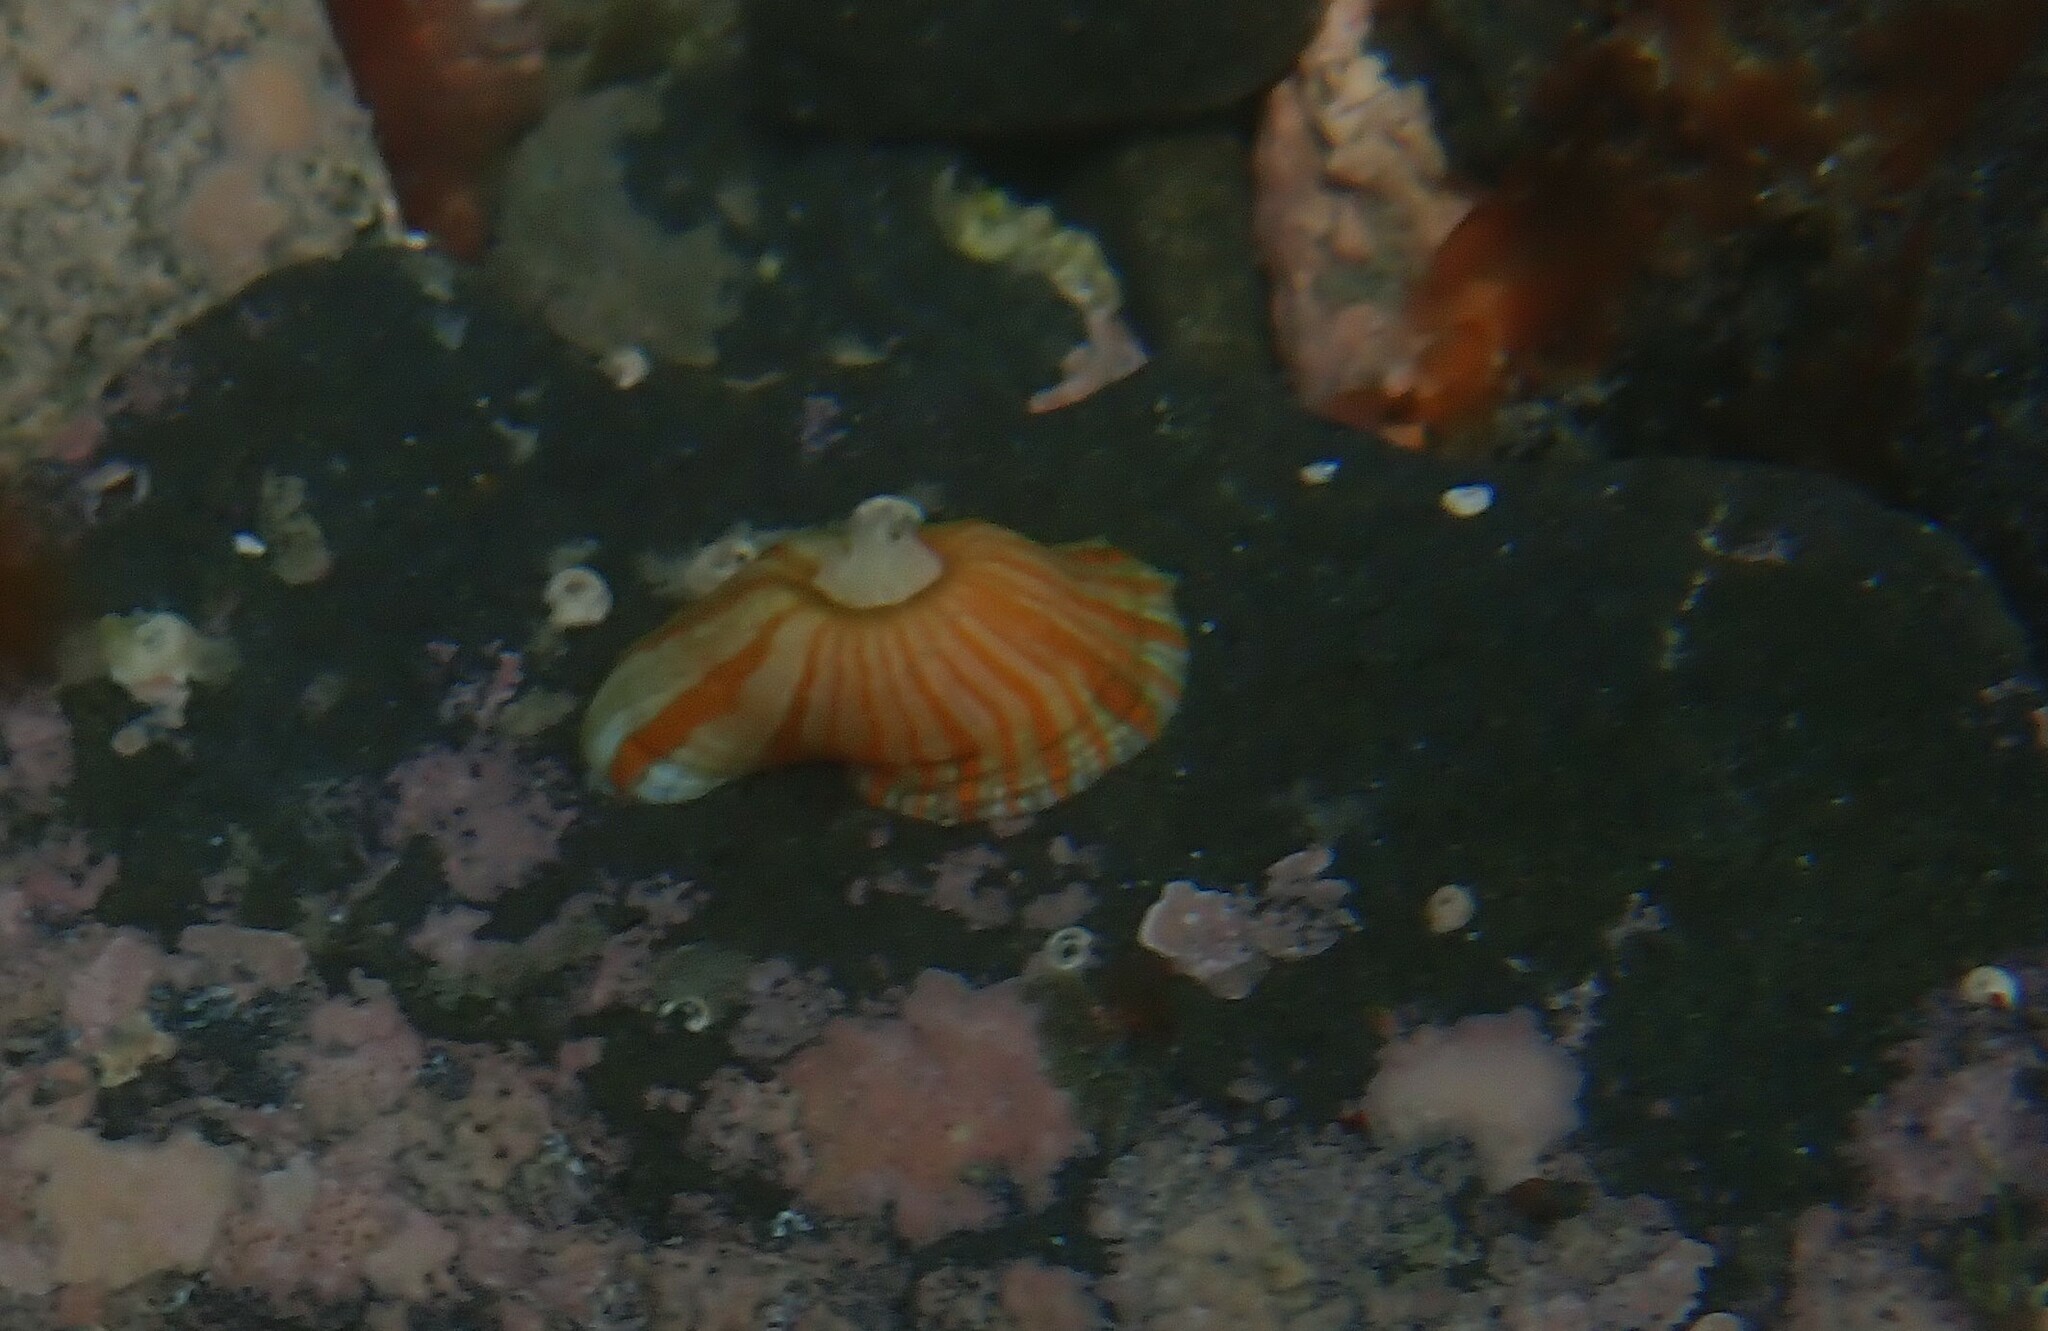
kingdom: Animalia
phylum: Cnidaria
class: Anthozoa
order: Actiniaria
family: Sagartiidae
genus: Anthothoe
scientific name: Anthothoe albocincta
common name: Orange striped anemone
